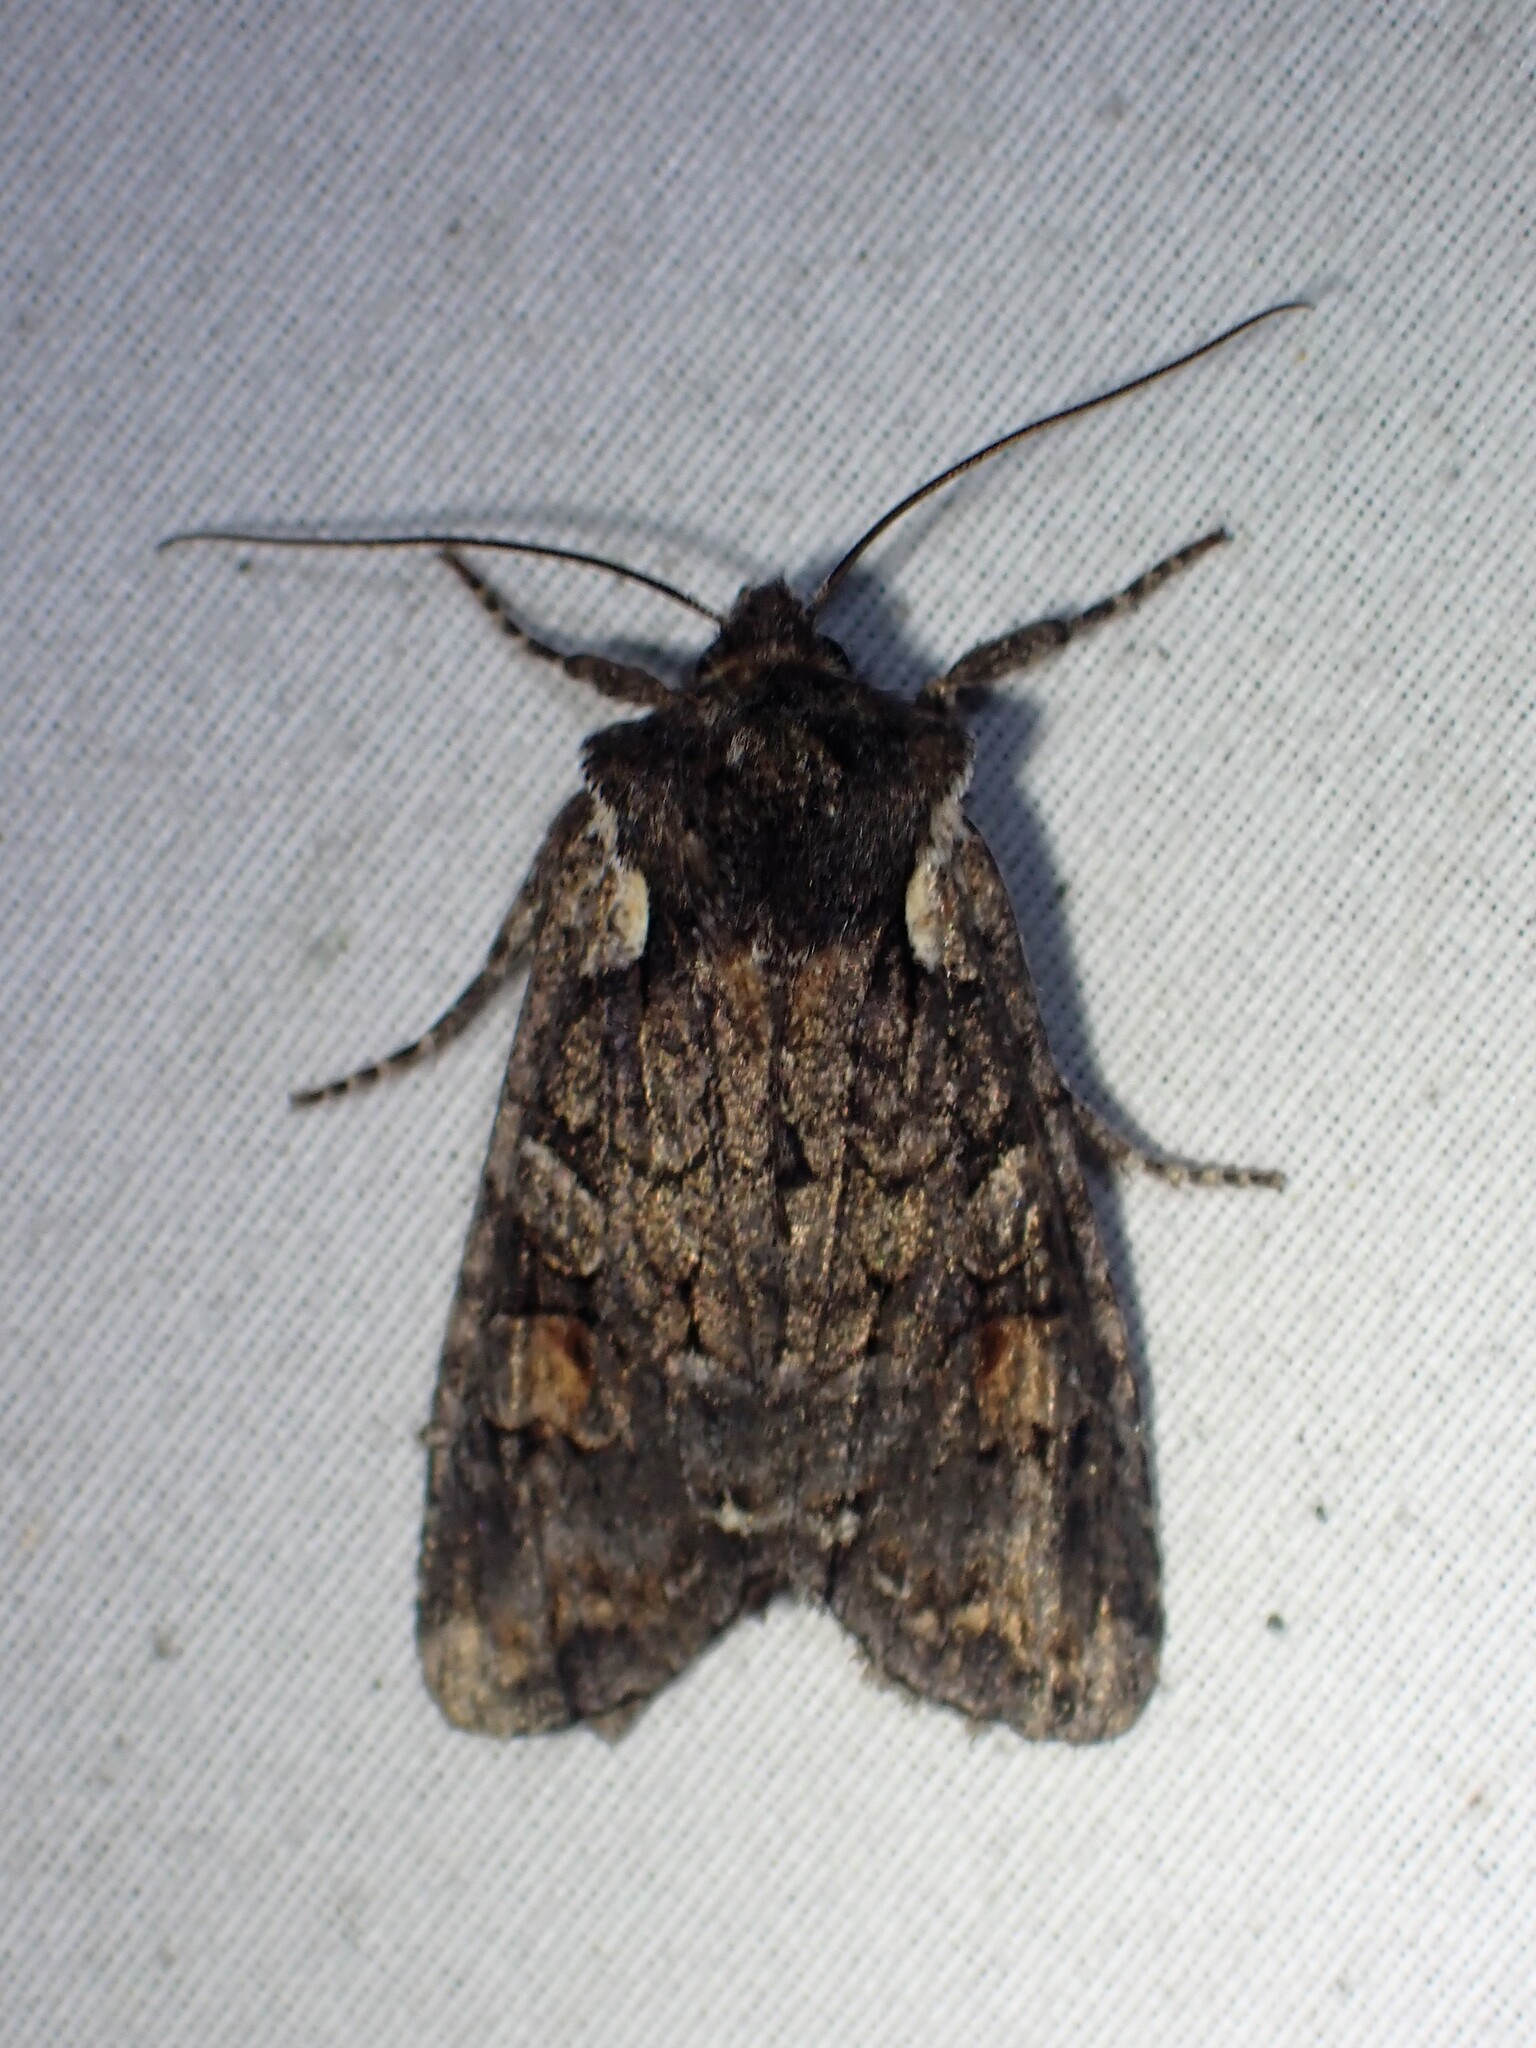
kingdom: Animalia
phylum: Arthropoda
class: Insecta
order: Lepidoptera
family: Noctuidae
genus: Lithophane
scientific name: Lithophane pexata
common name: Plush-naped pinion moth
